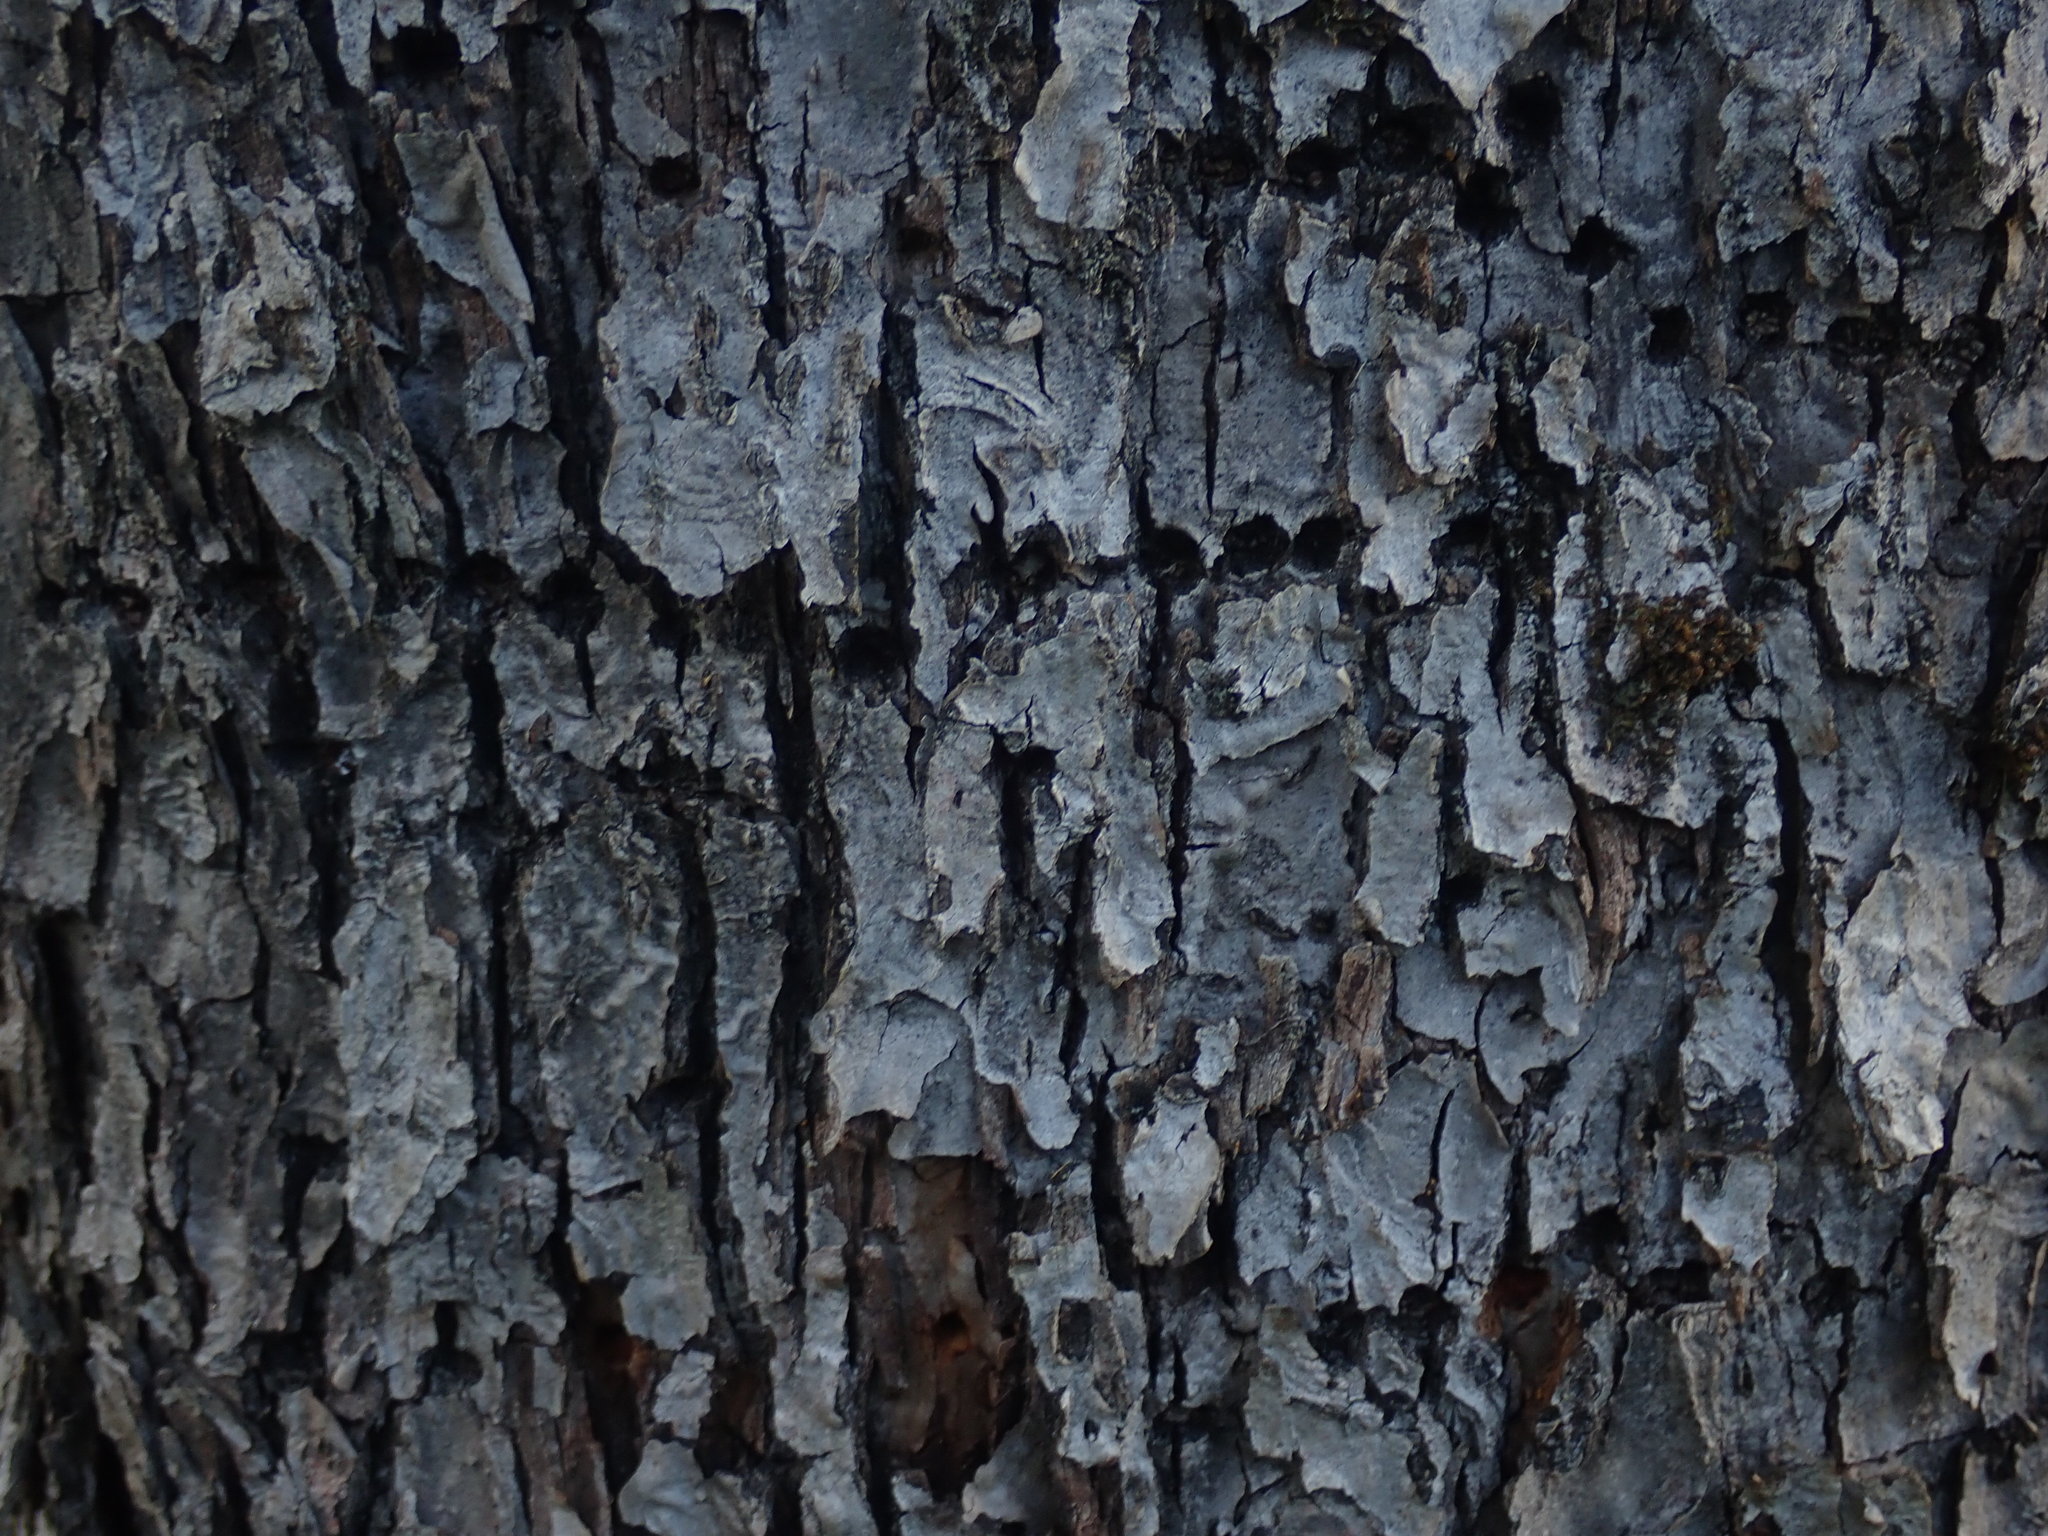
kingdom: Animalia
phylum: Chordata
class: Aves
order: Piciformes
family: Picidae
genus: Sphyrapicus
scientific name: Sphyrapicus varius
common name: Yellow-bellied sapsucker
